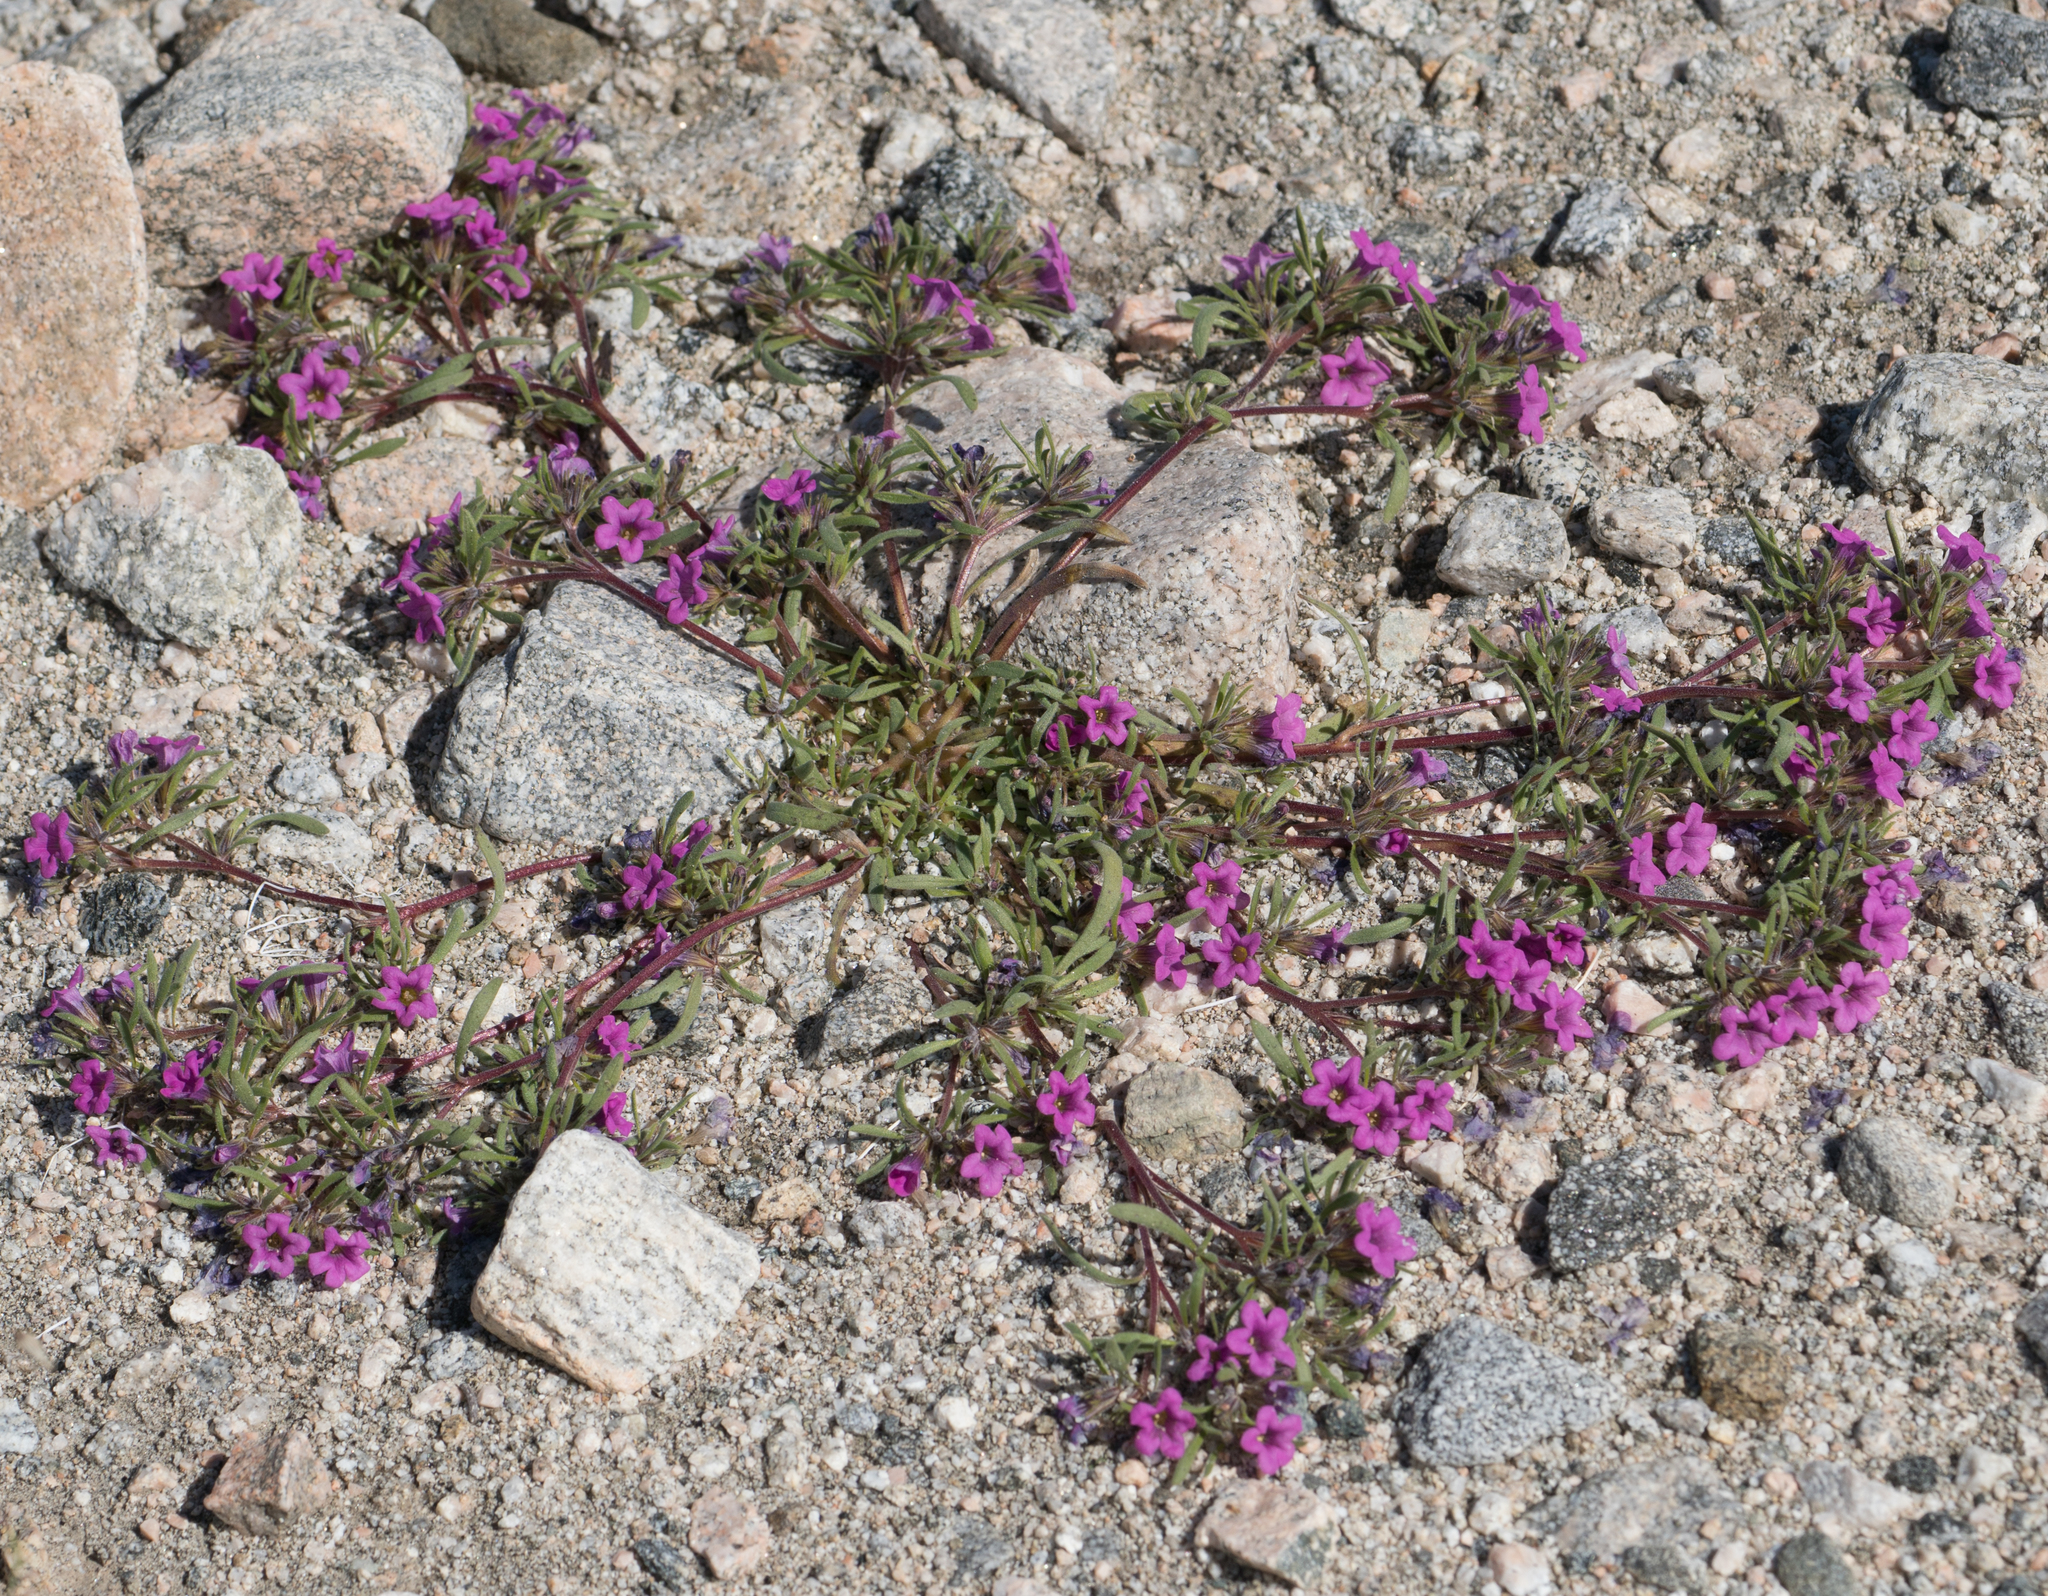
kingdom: Plantae
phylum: Tracheophyta
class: Magnoliopsida
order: Boraginales
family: Namaceae
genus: Nama
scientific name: Nama demissa
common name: Leafy nama
